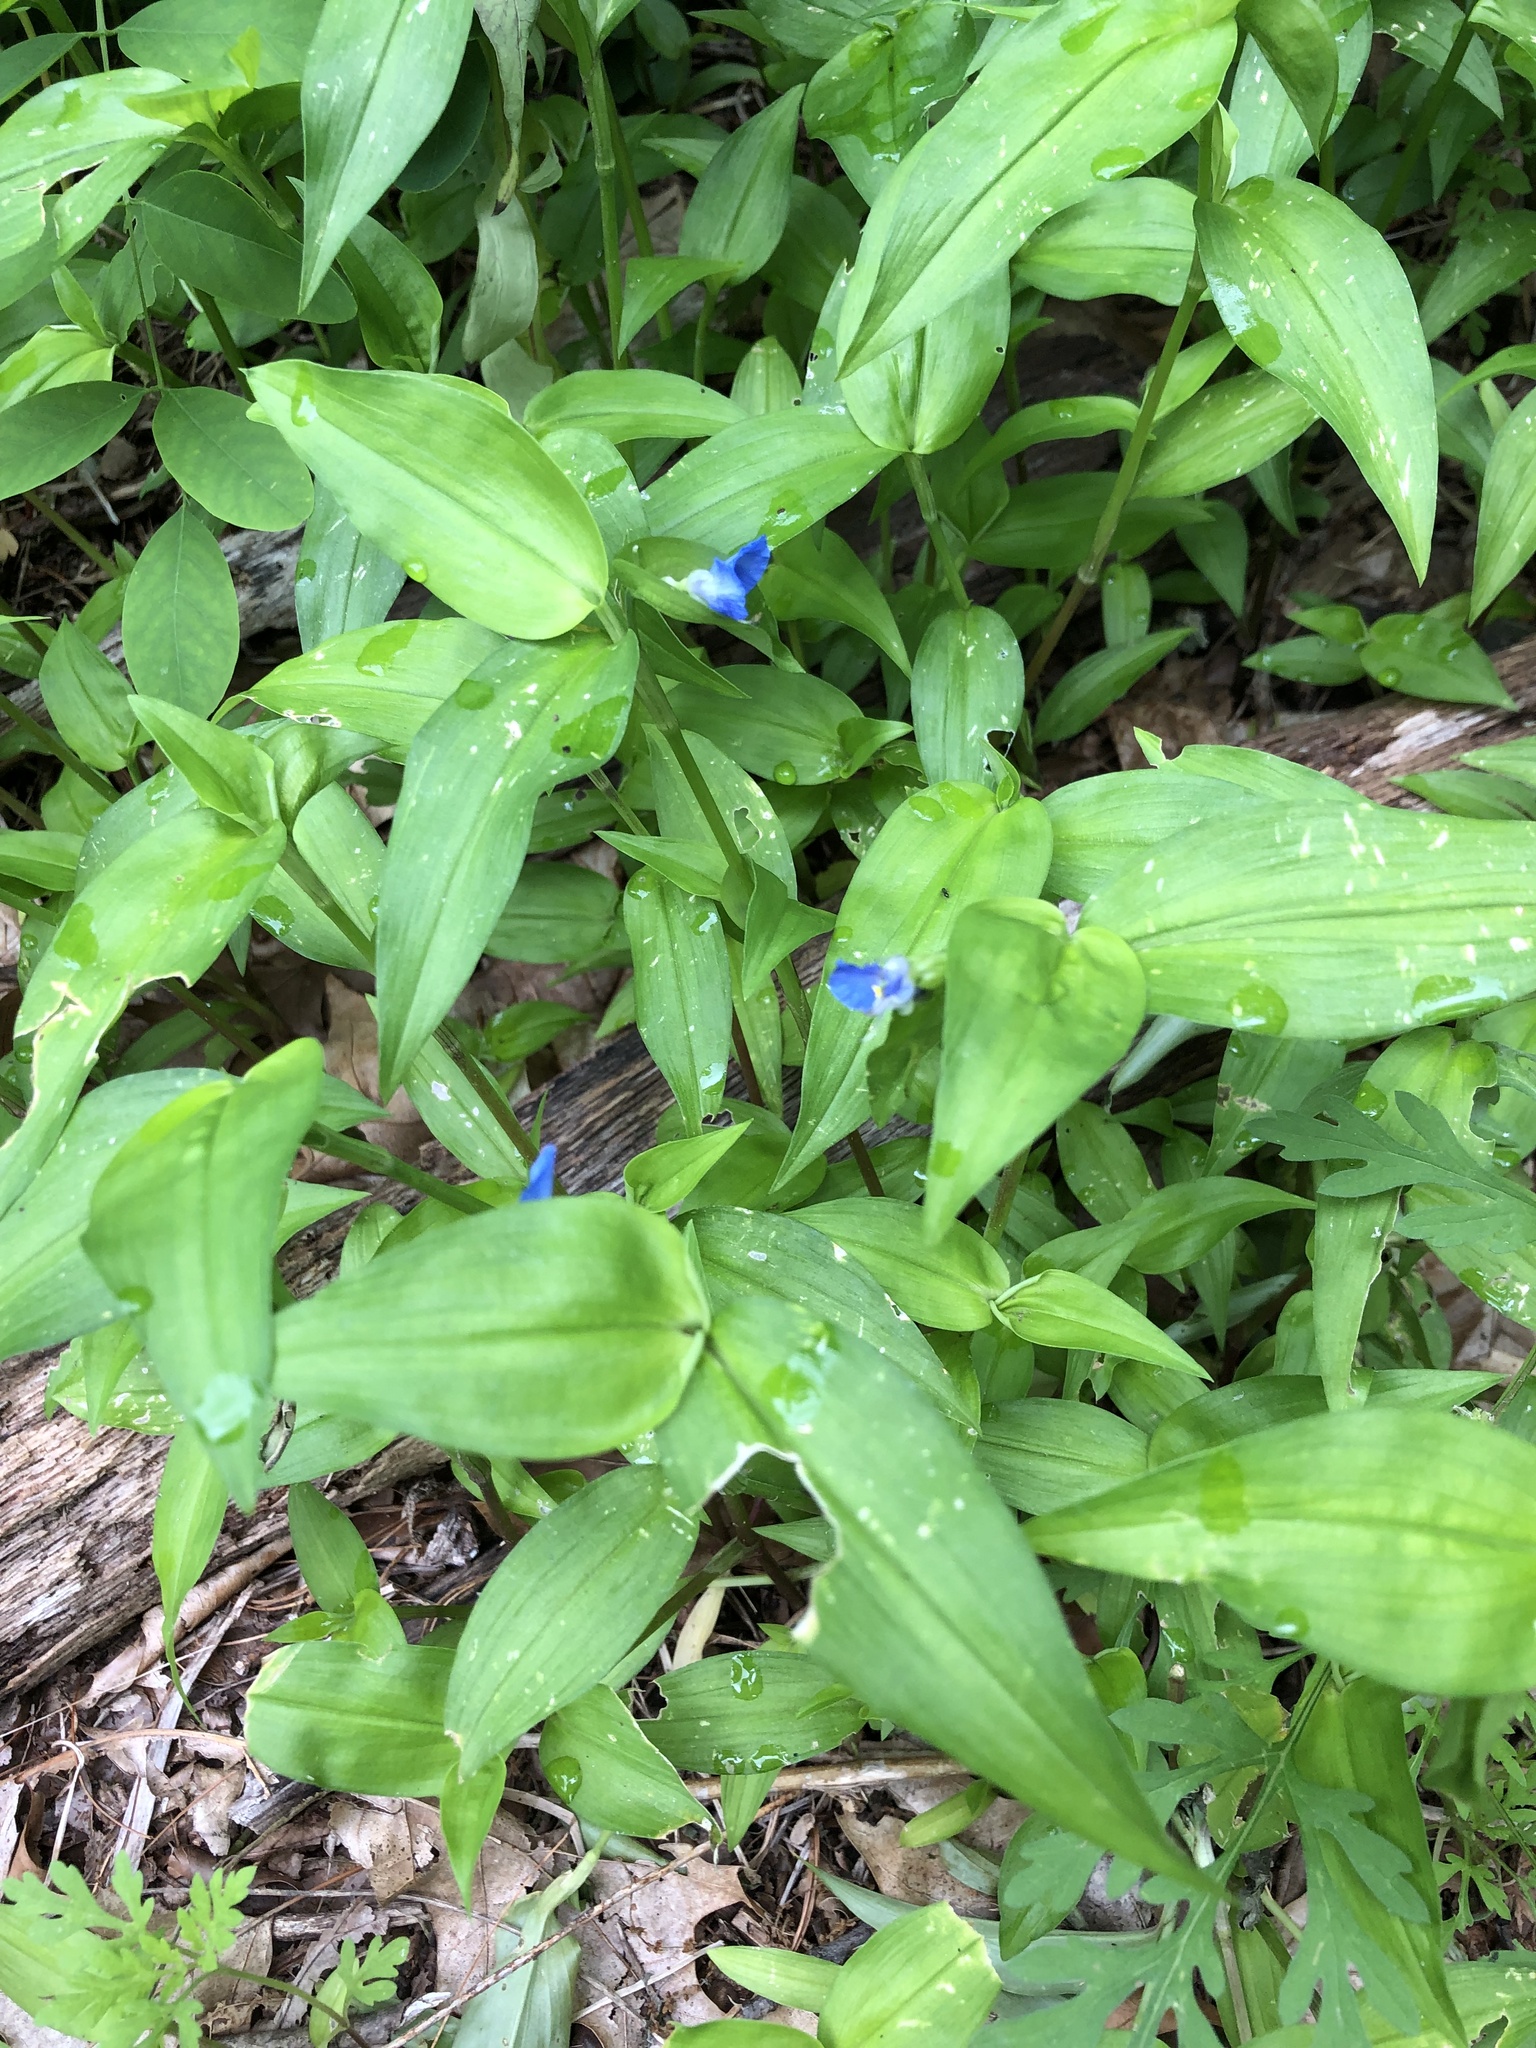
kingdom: Plantae
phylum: Tracheophyta
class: Liliopsida
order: Commelinales
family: Commelinaceae
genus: Commelina
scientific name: Commelina communis
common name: Asiatic dayflower
